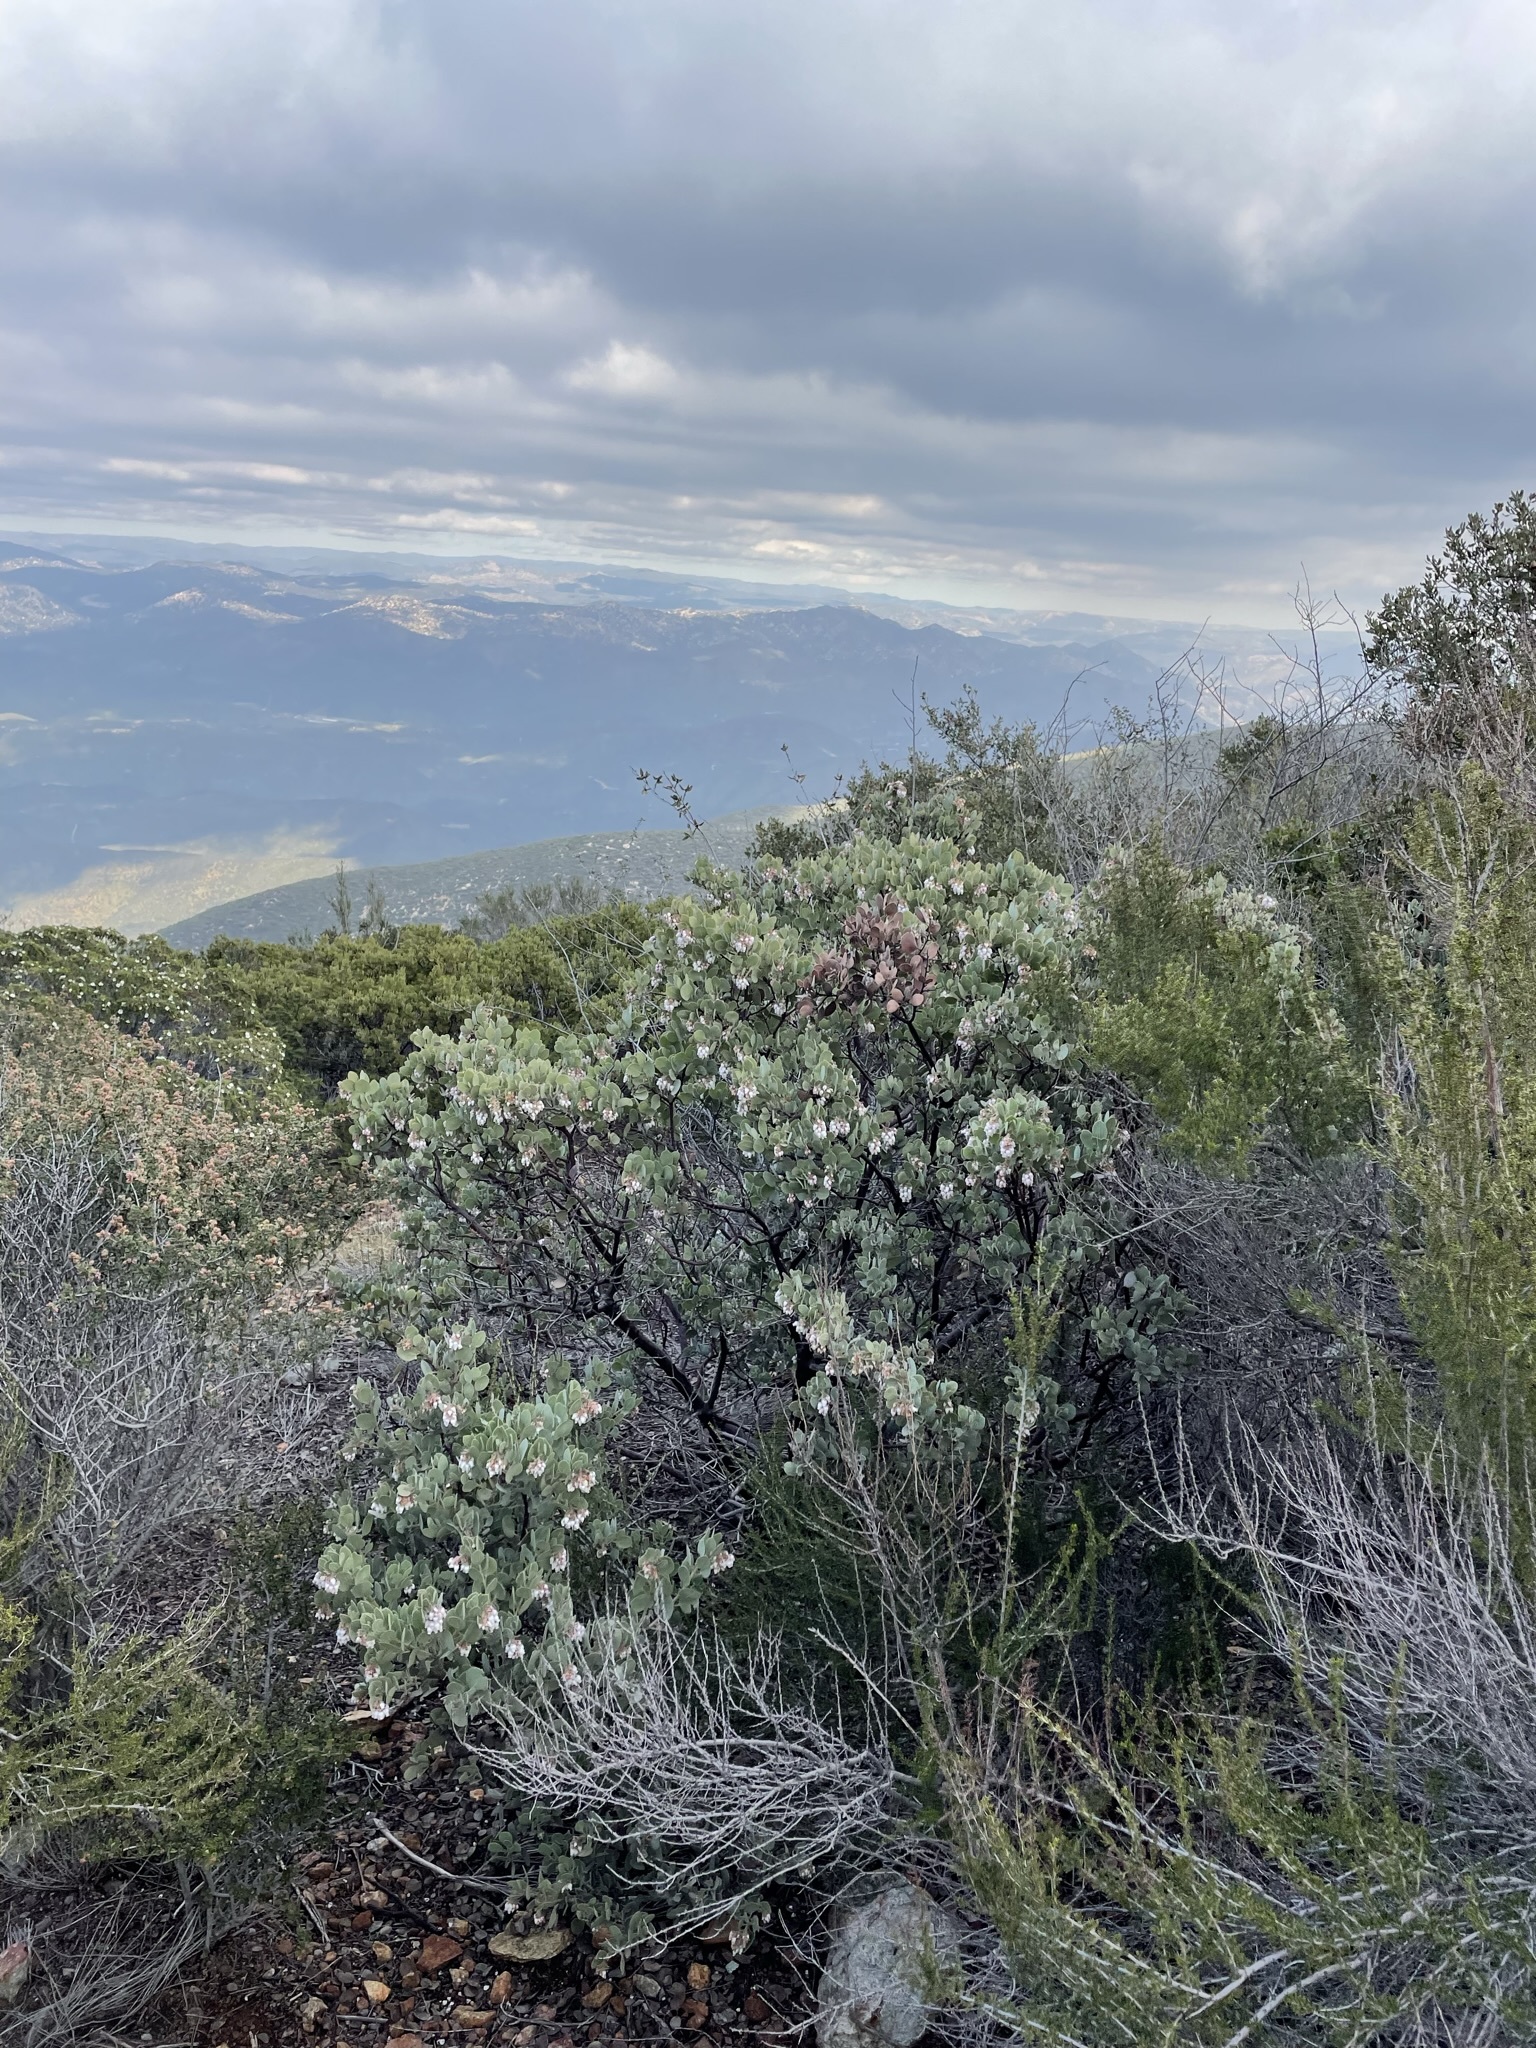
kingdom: Plantae
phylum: Tracheophyta
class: Magnoliopsida
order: Ericales
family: Ericaceae
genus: Arctostaphylos
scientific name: Arctostaphylos glandulosa
